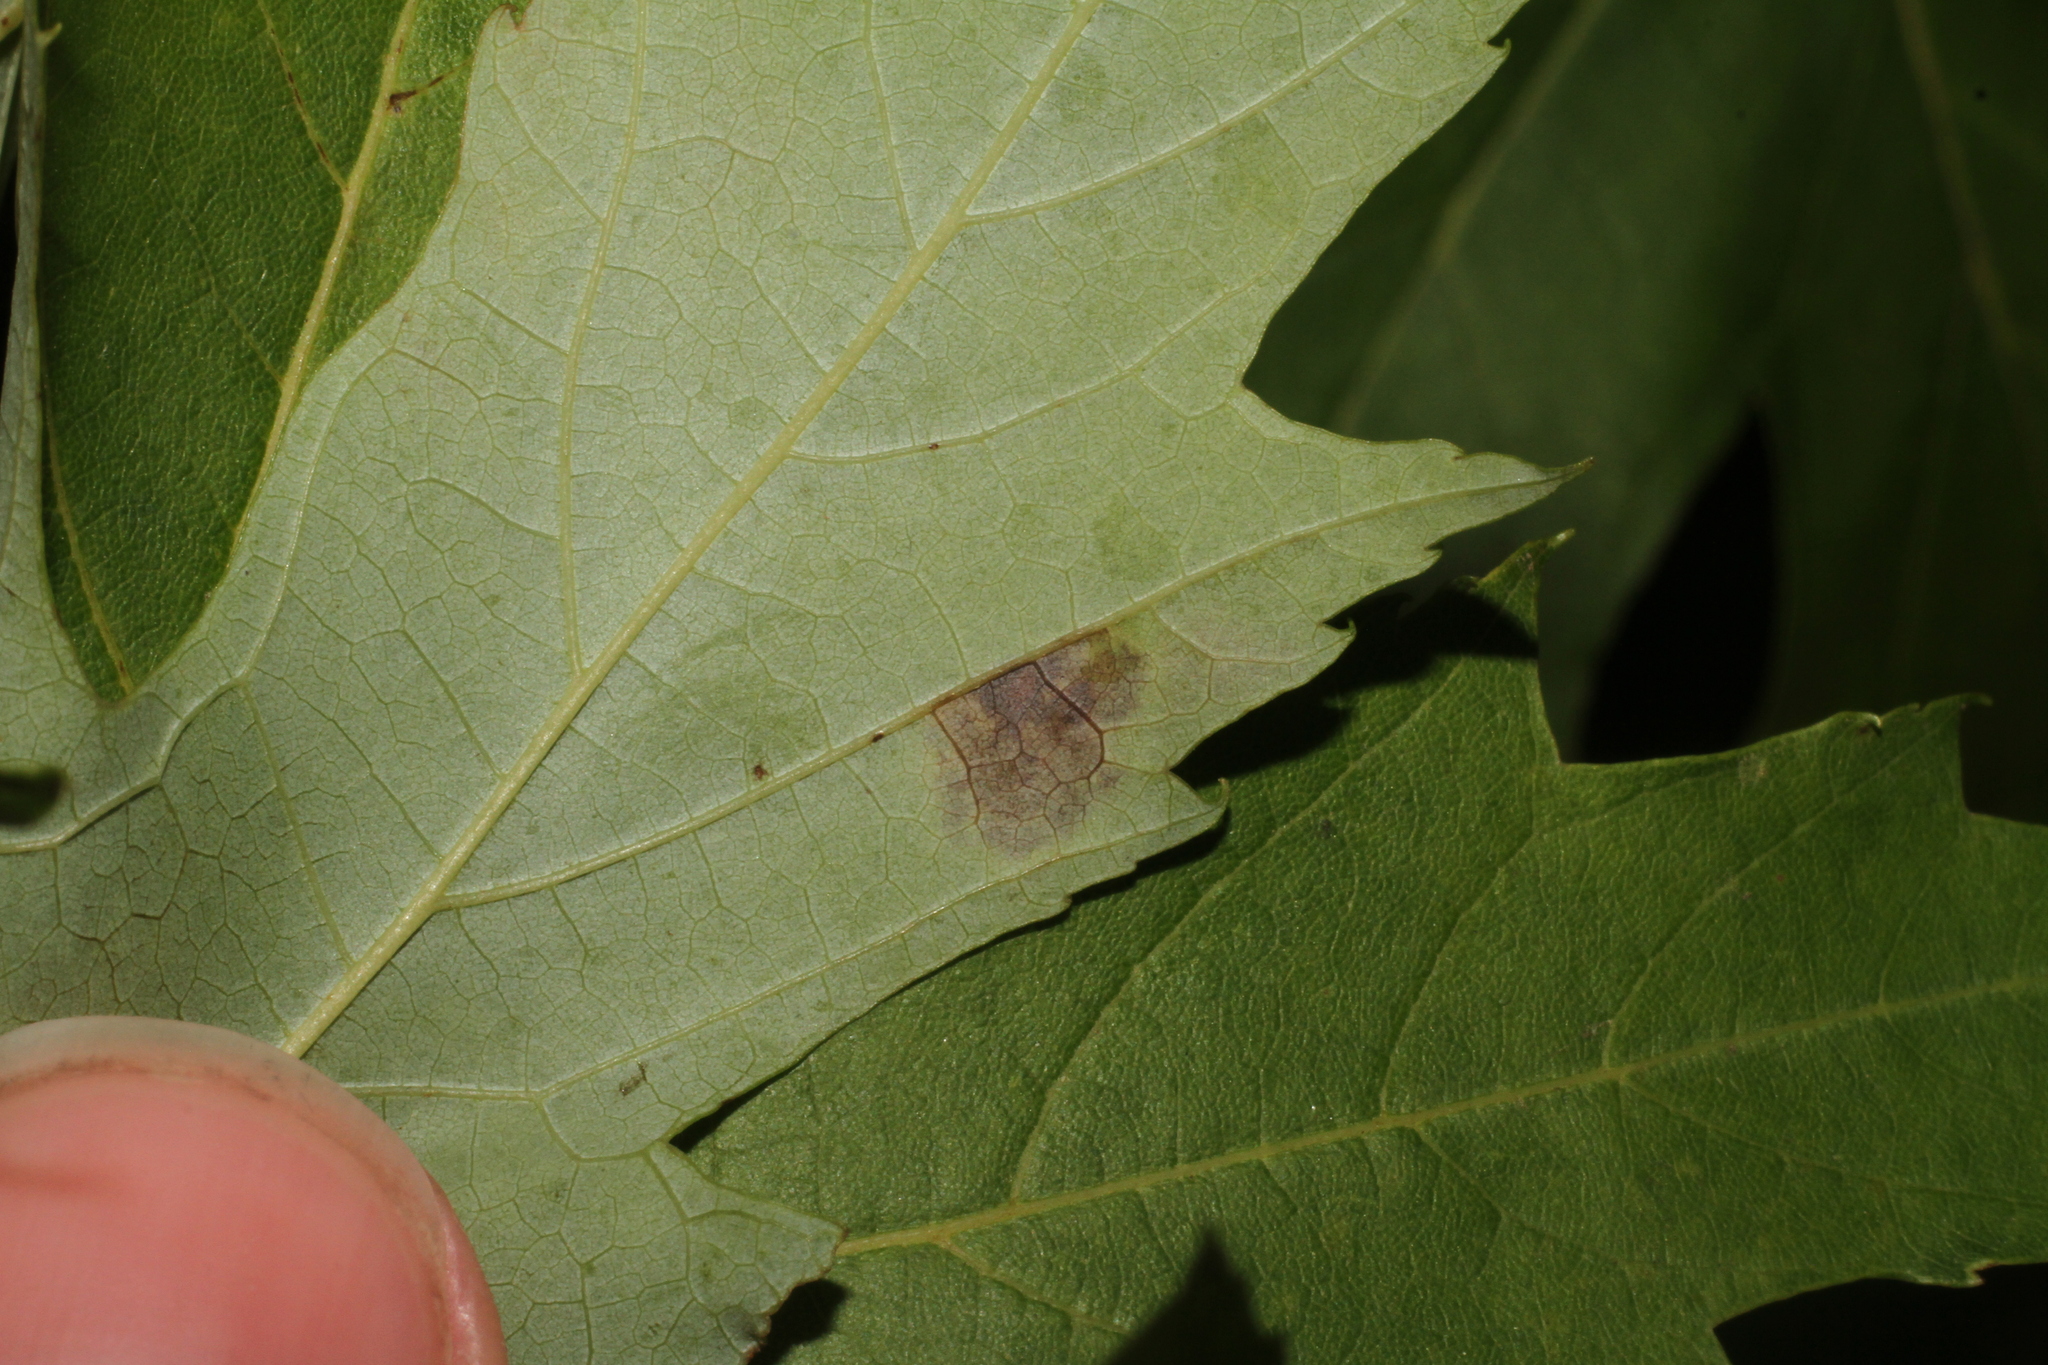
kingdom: Fungi
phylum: Ascomycota
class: Leotiomycetes
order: Rhytismatales
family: Rhytismataceae
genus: Rhytisma
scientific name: Rhytisma americanum
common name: American tar spot
